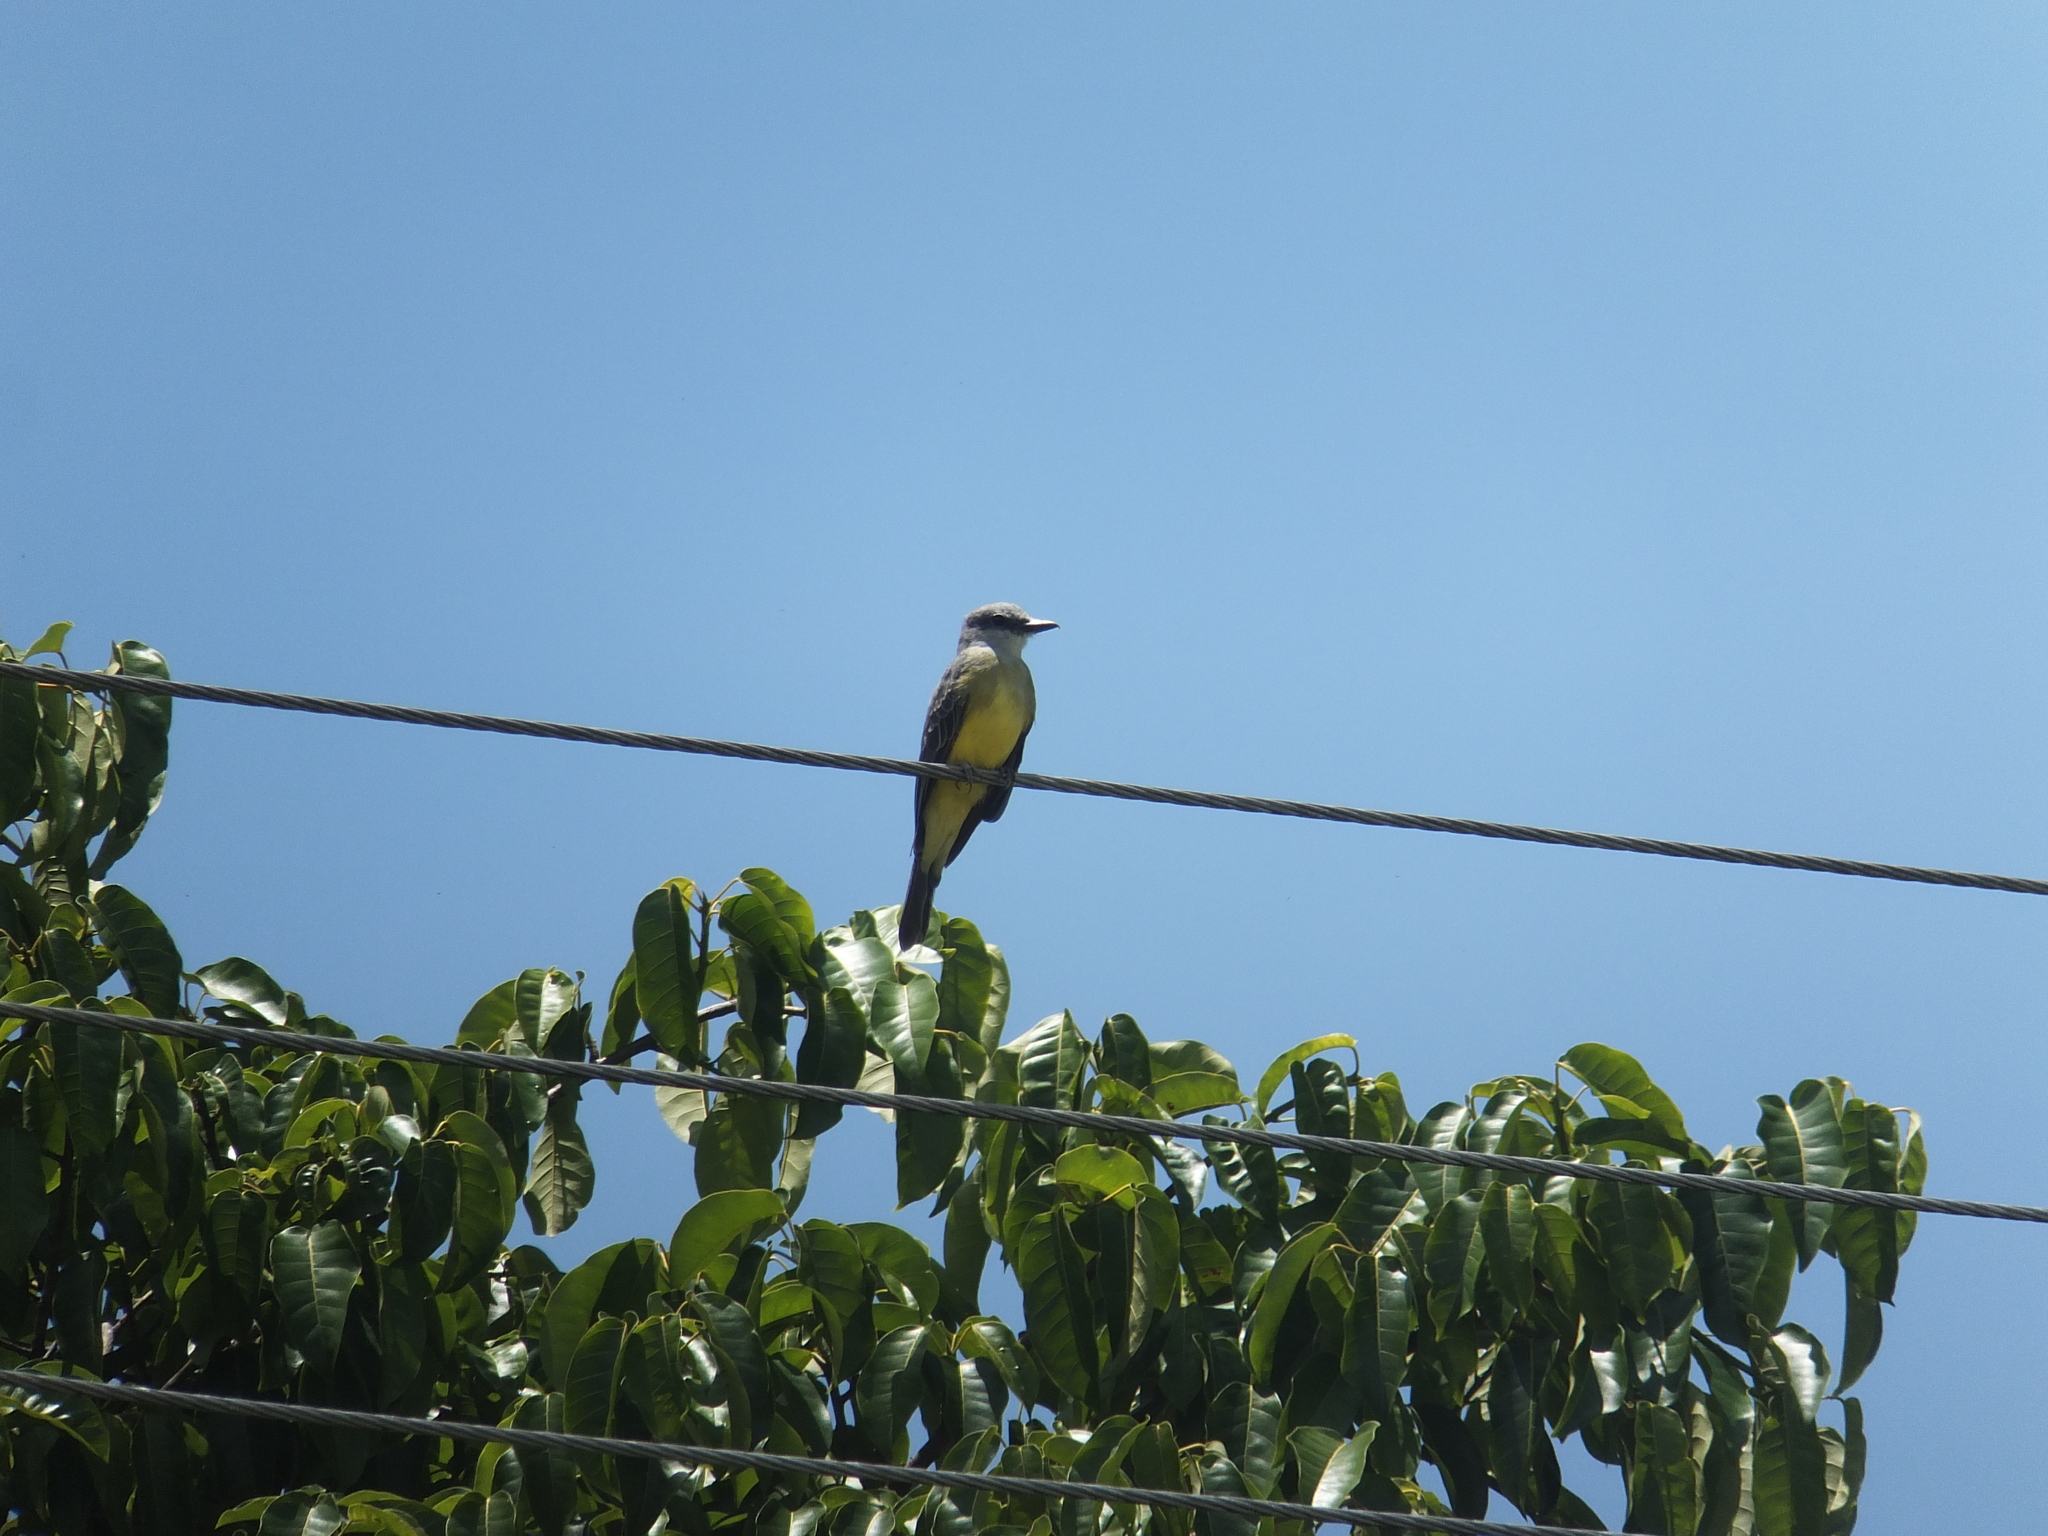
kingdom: Animalia
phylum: Chordata
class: Aves
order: Passeriformes
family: Tyrannidae
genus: Tyrannus
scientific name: Tyrannus melancholicus
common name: Tropical kingbird
